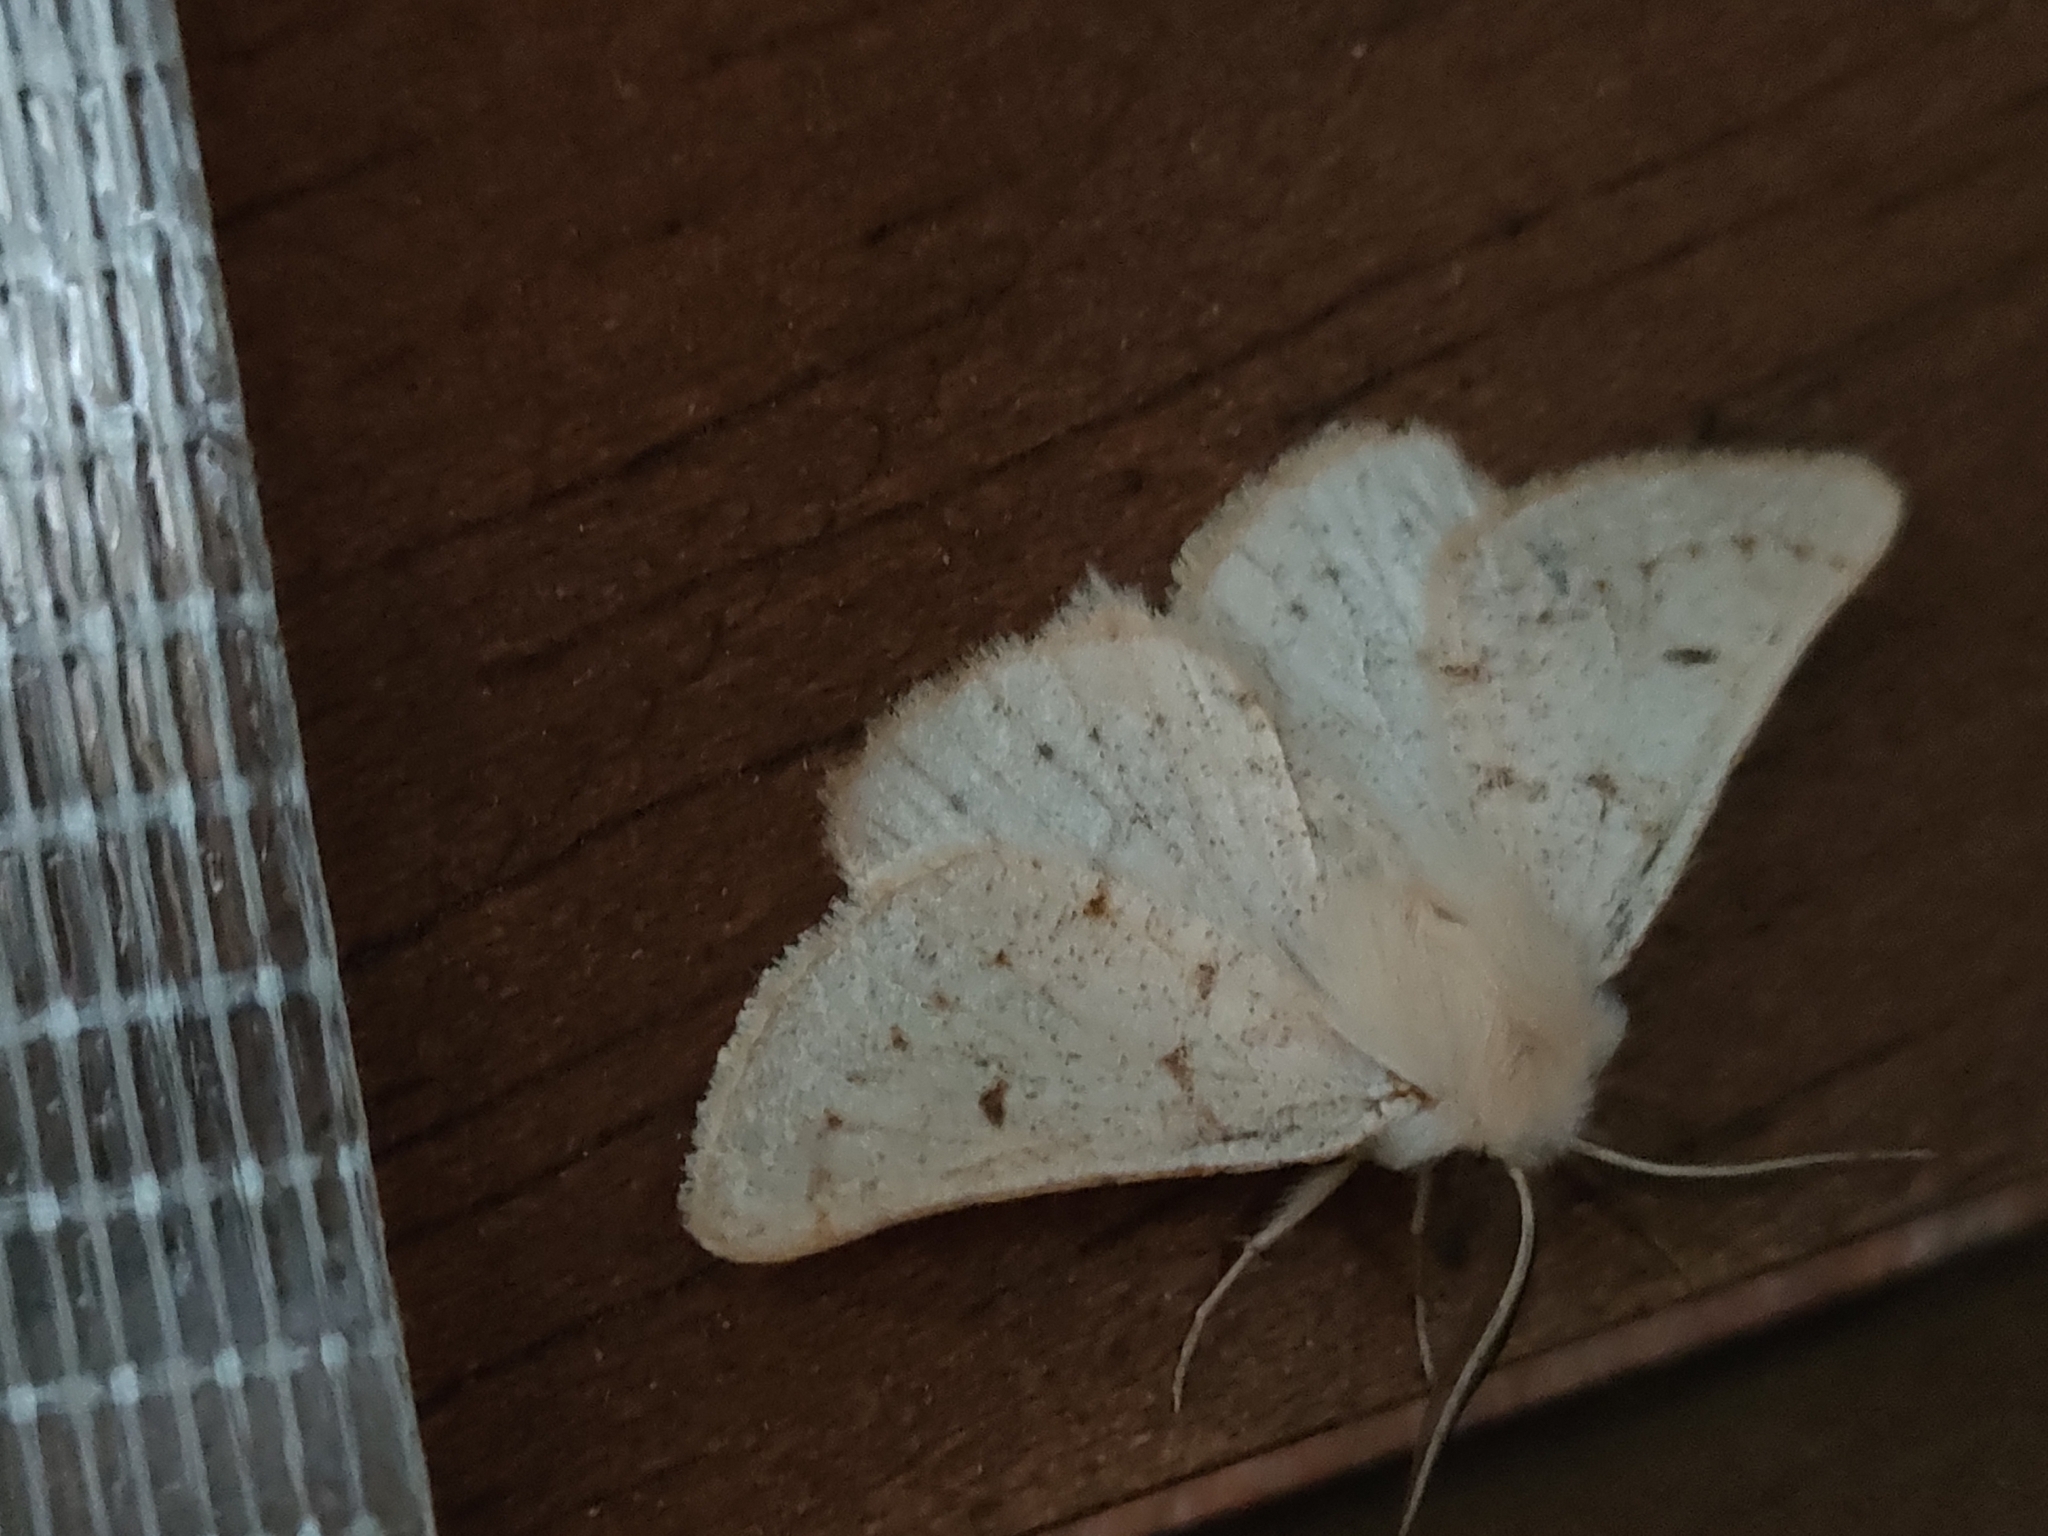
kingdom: Animalia
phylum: Arthropoda
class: Insecta
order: Lepidoptera
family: Geometridae
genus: Dyscia
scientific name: Dyscia lentiscaria
